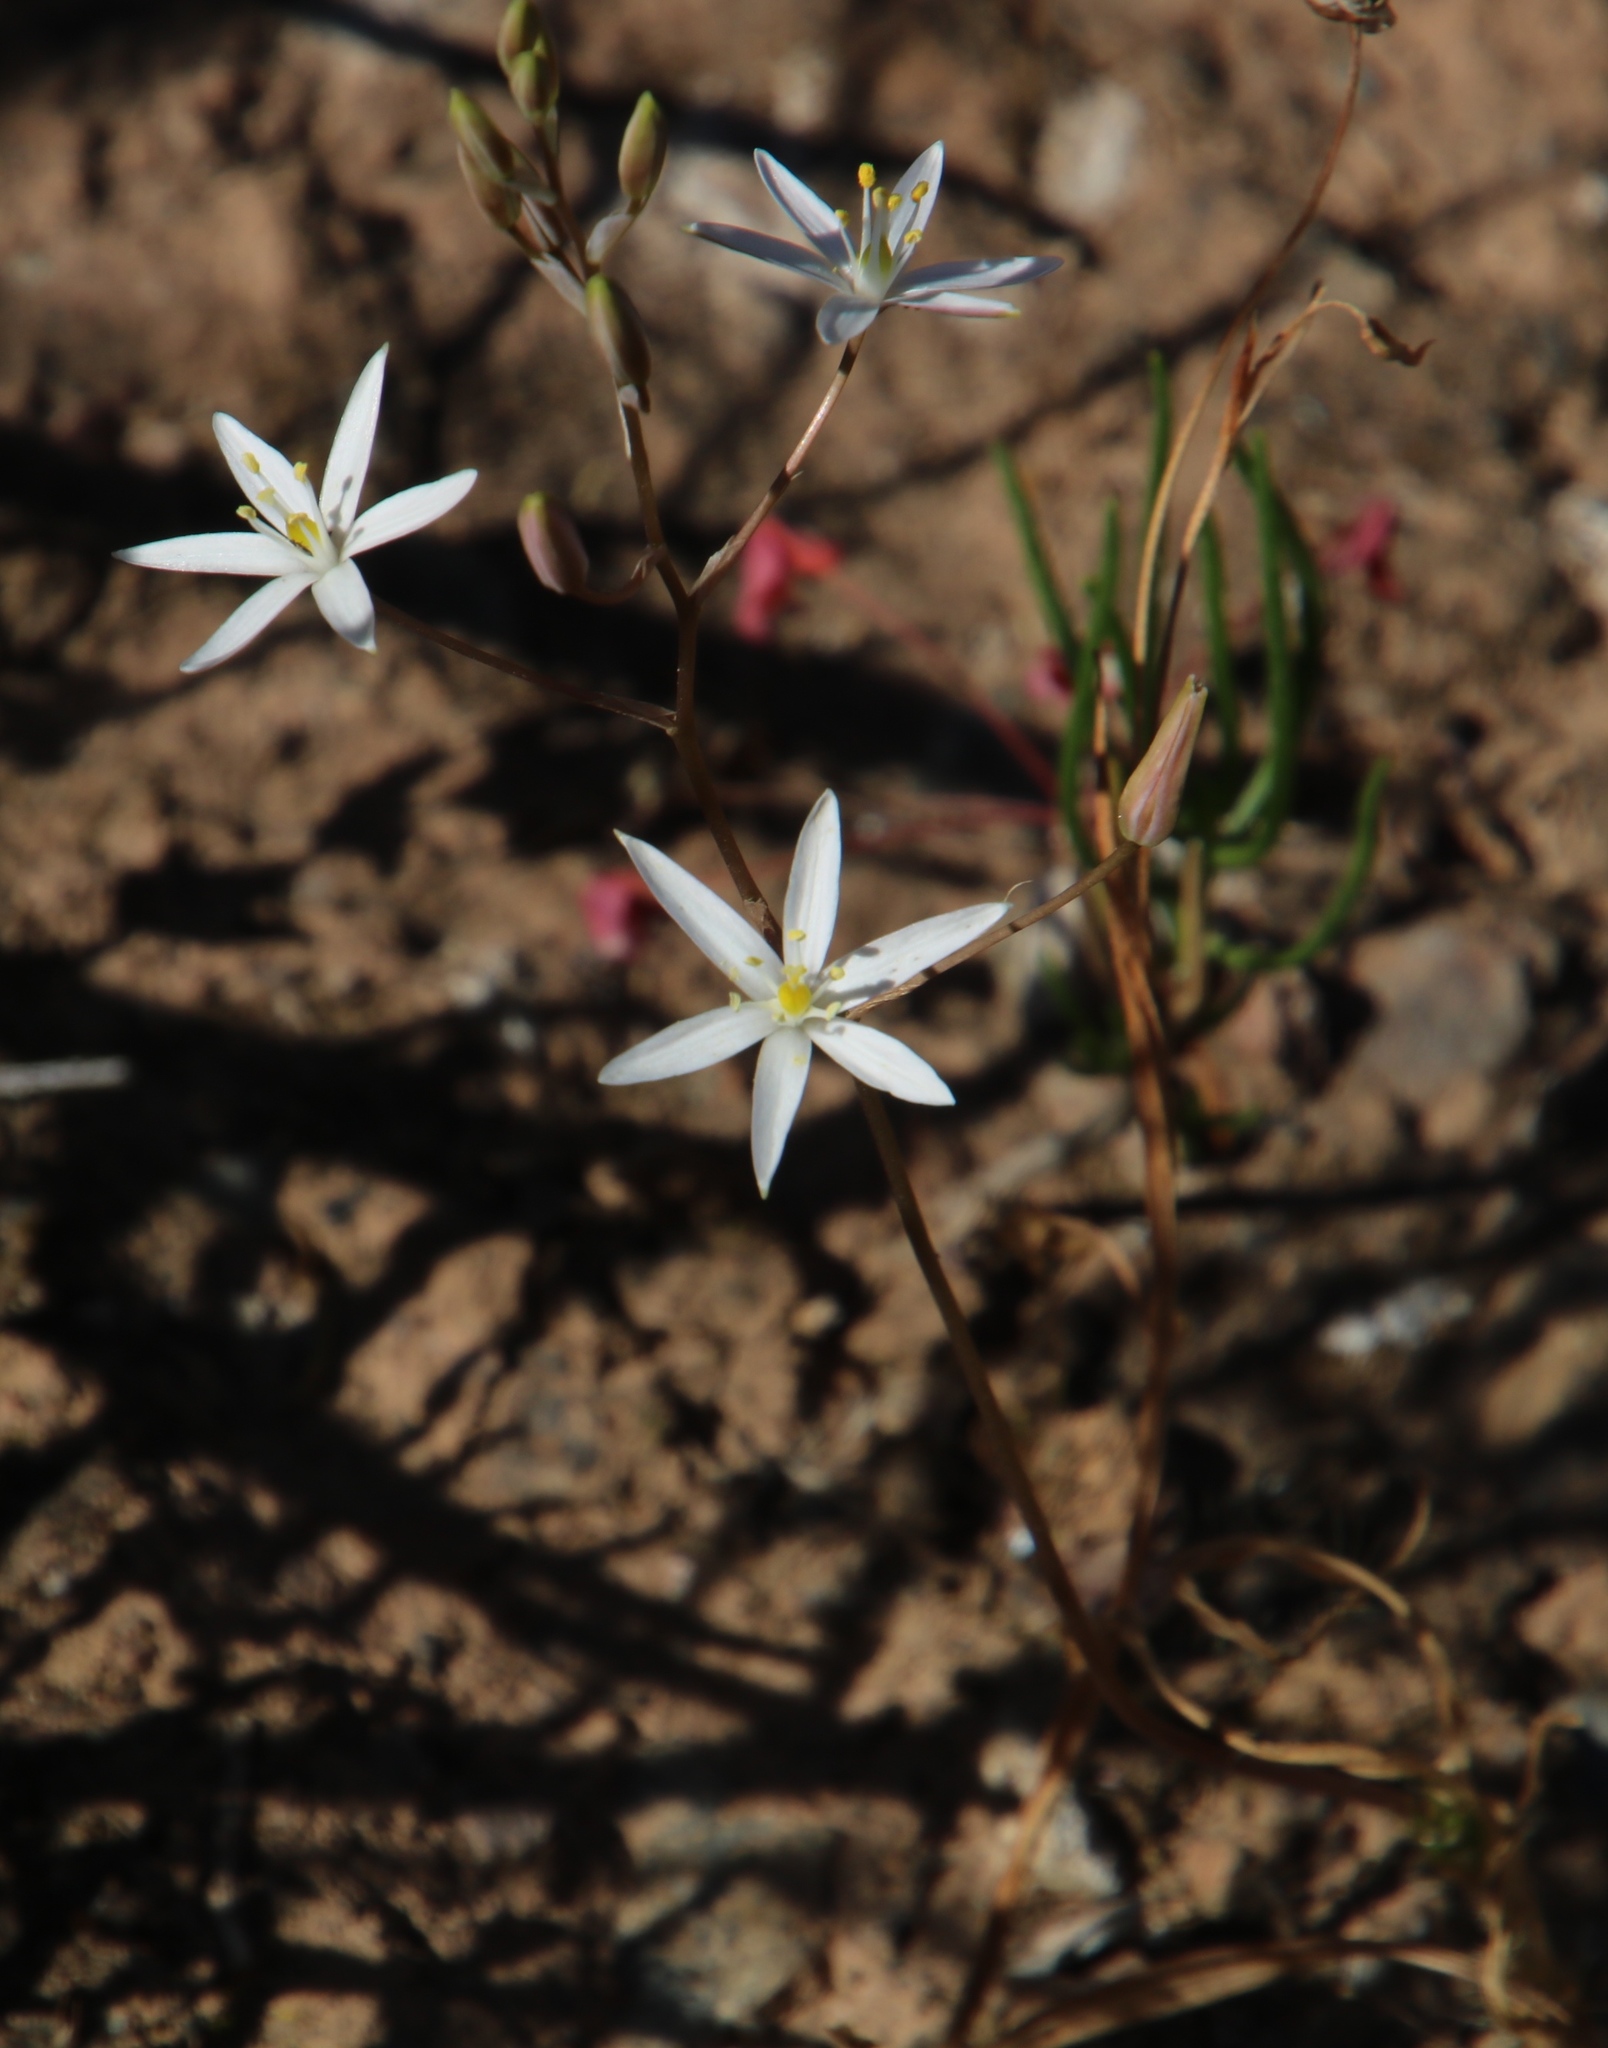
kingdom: Plantae
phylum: Tracheophyta
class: Liliopsida
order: Asparagales
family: Asparagaceae
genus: Ornithogalum
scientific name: Ornithogalum hispidum
